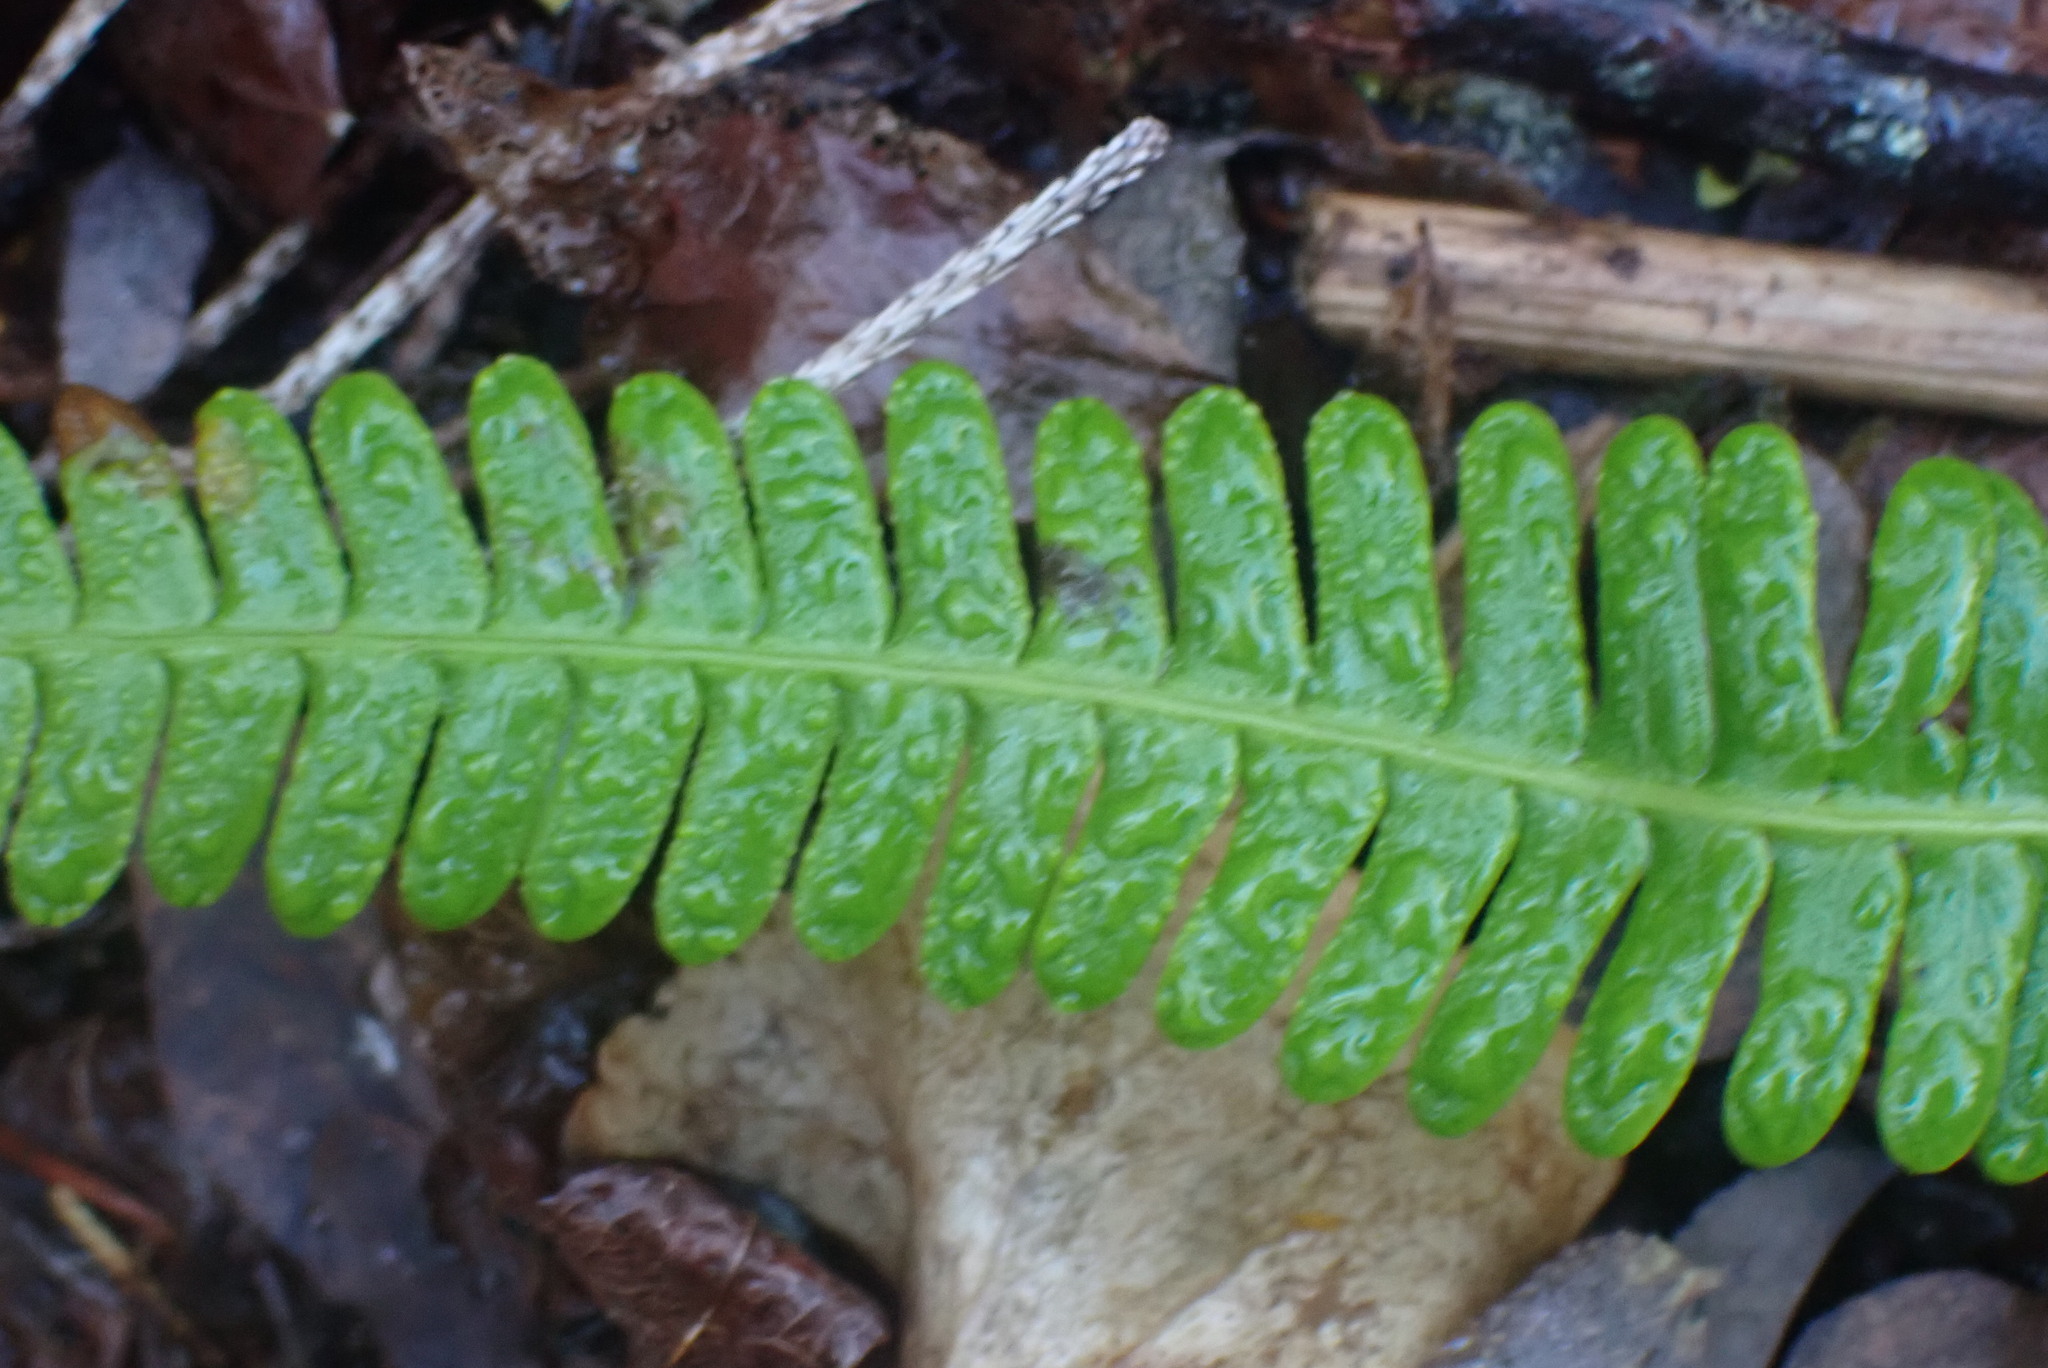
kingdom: Plantae
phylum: Tracheophyta
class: Polypodiopsida
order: Polypodiales
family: Blechnaceae
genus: Struthiopteris
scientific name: Struthiopteris spicant
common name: Deer fern
